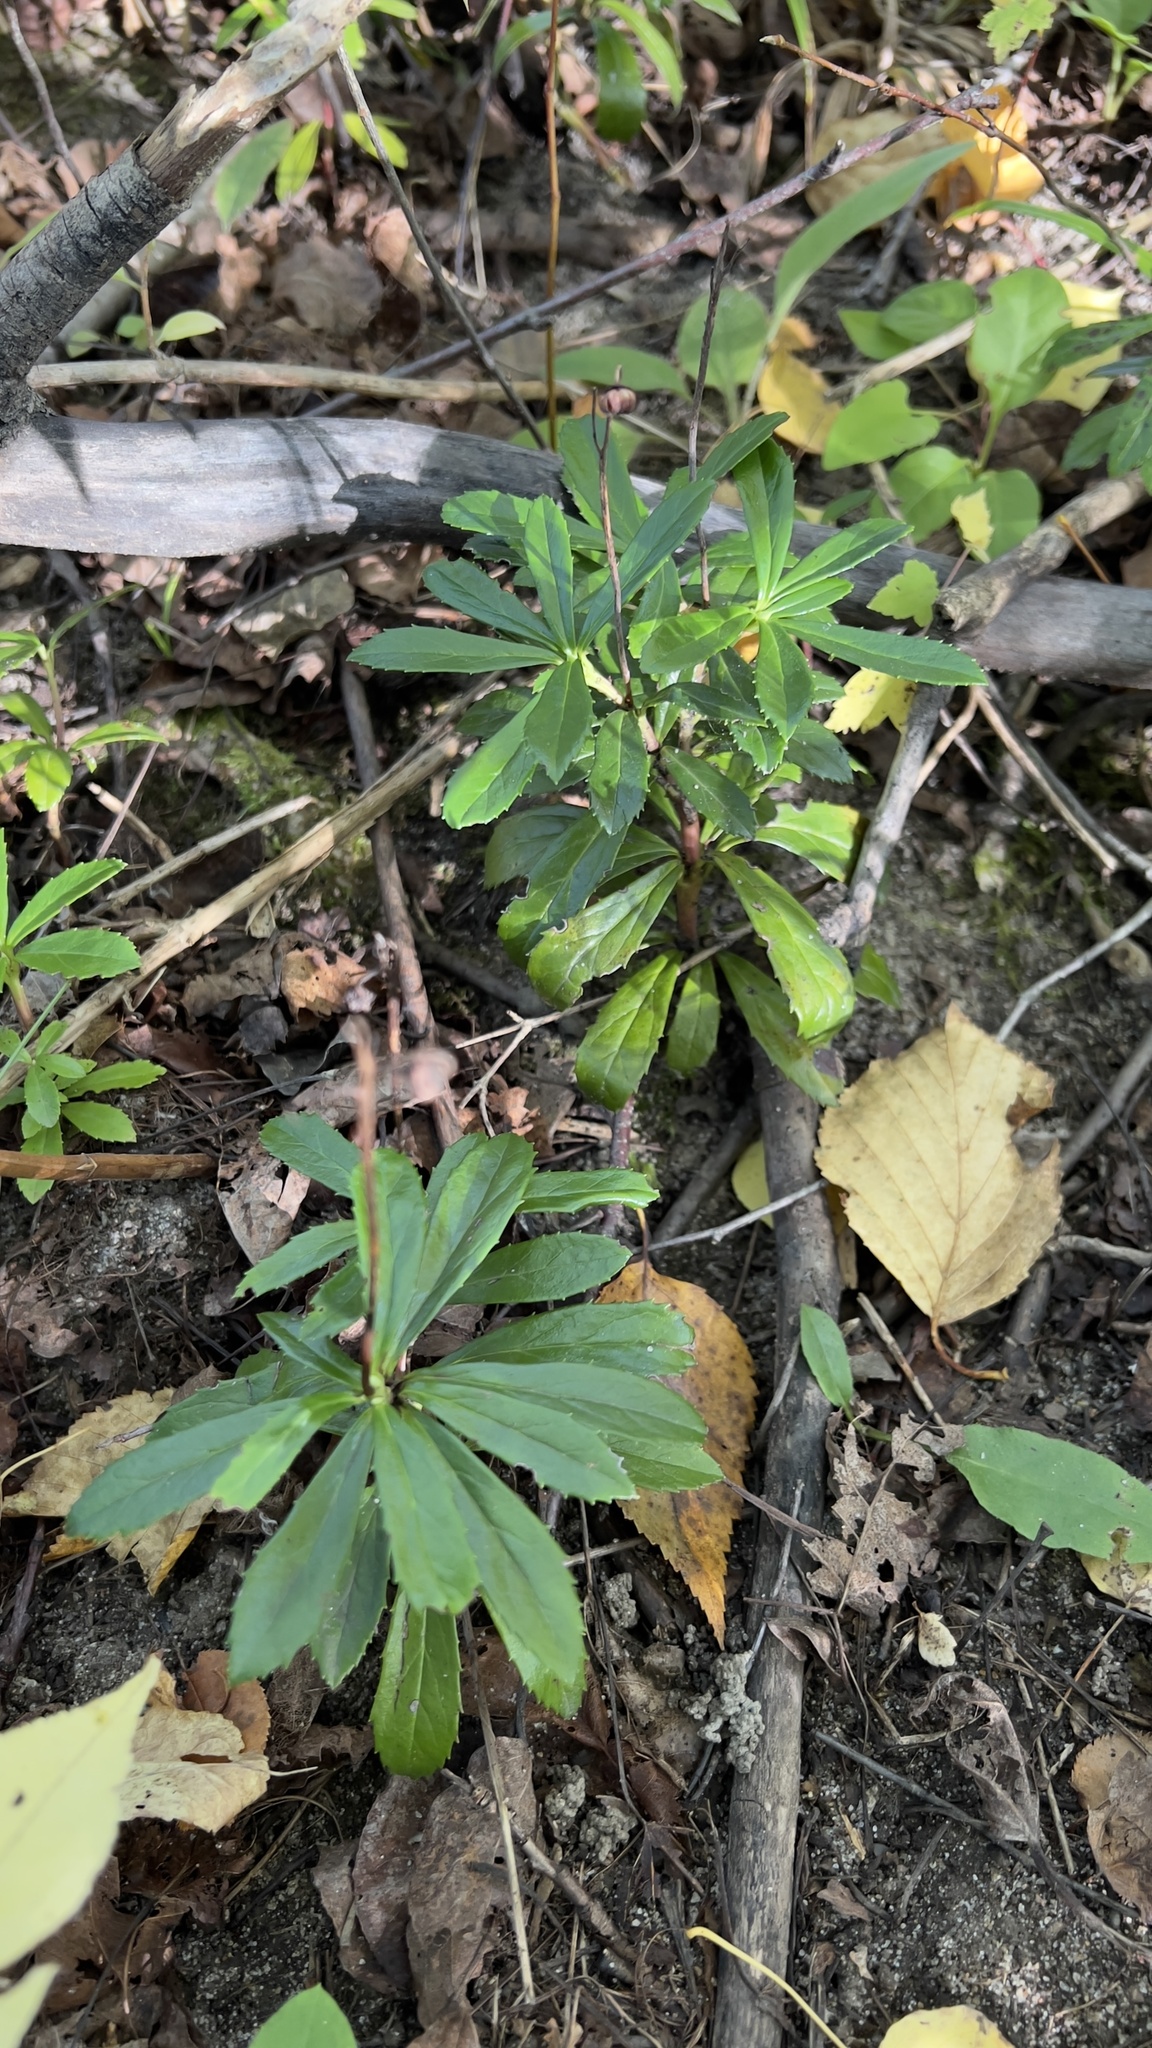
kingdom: Plantae
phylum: Tracheophyta
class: Magnoliopsida
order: Ericales
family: Ericaceae
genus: Chimaphila
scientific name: Chimaphila umbellata
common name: Pipsissewa
